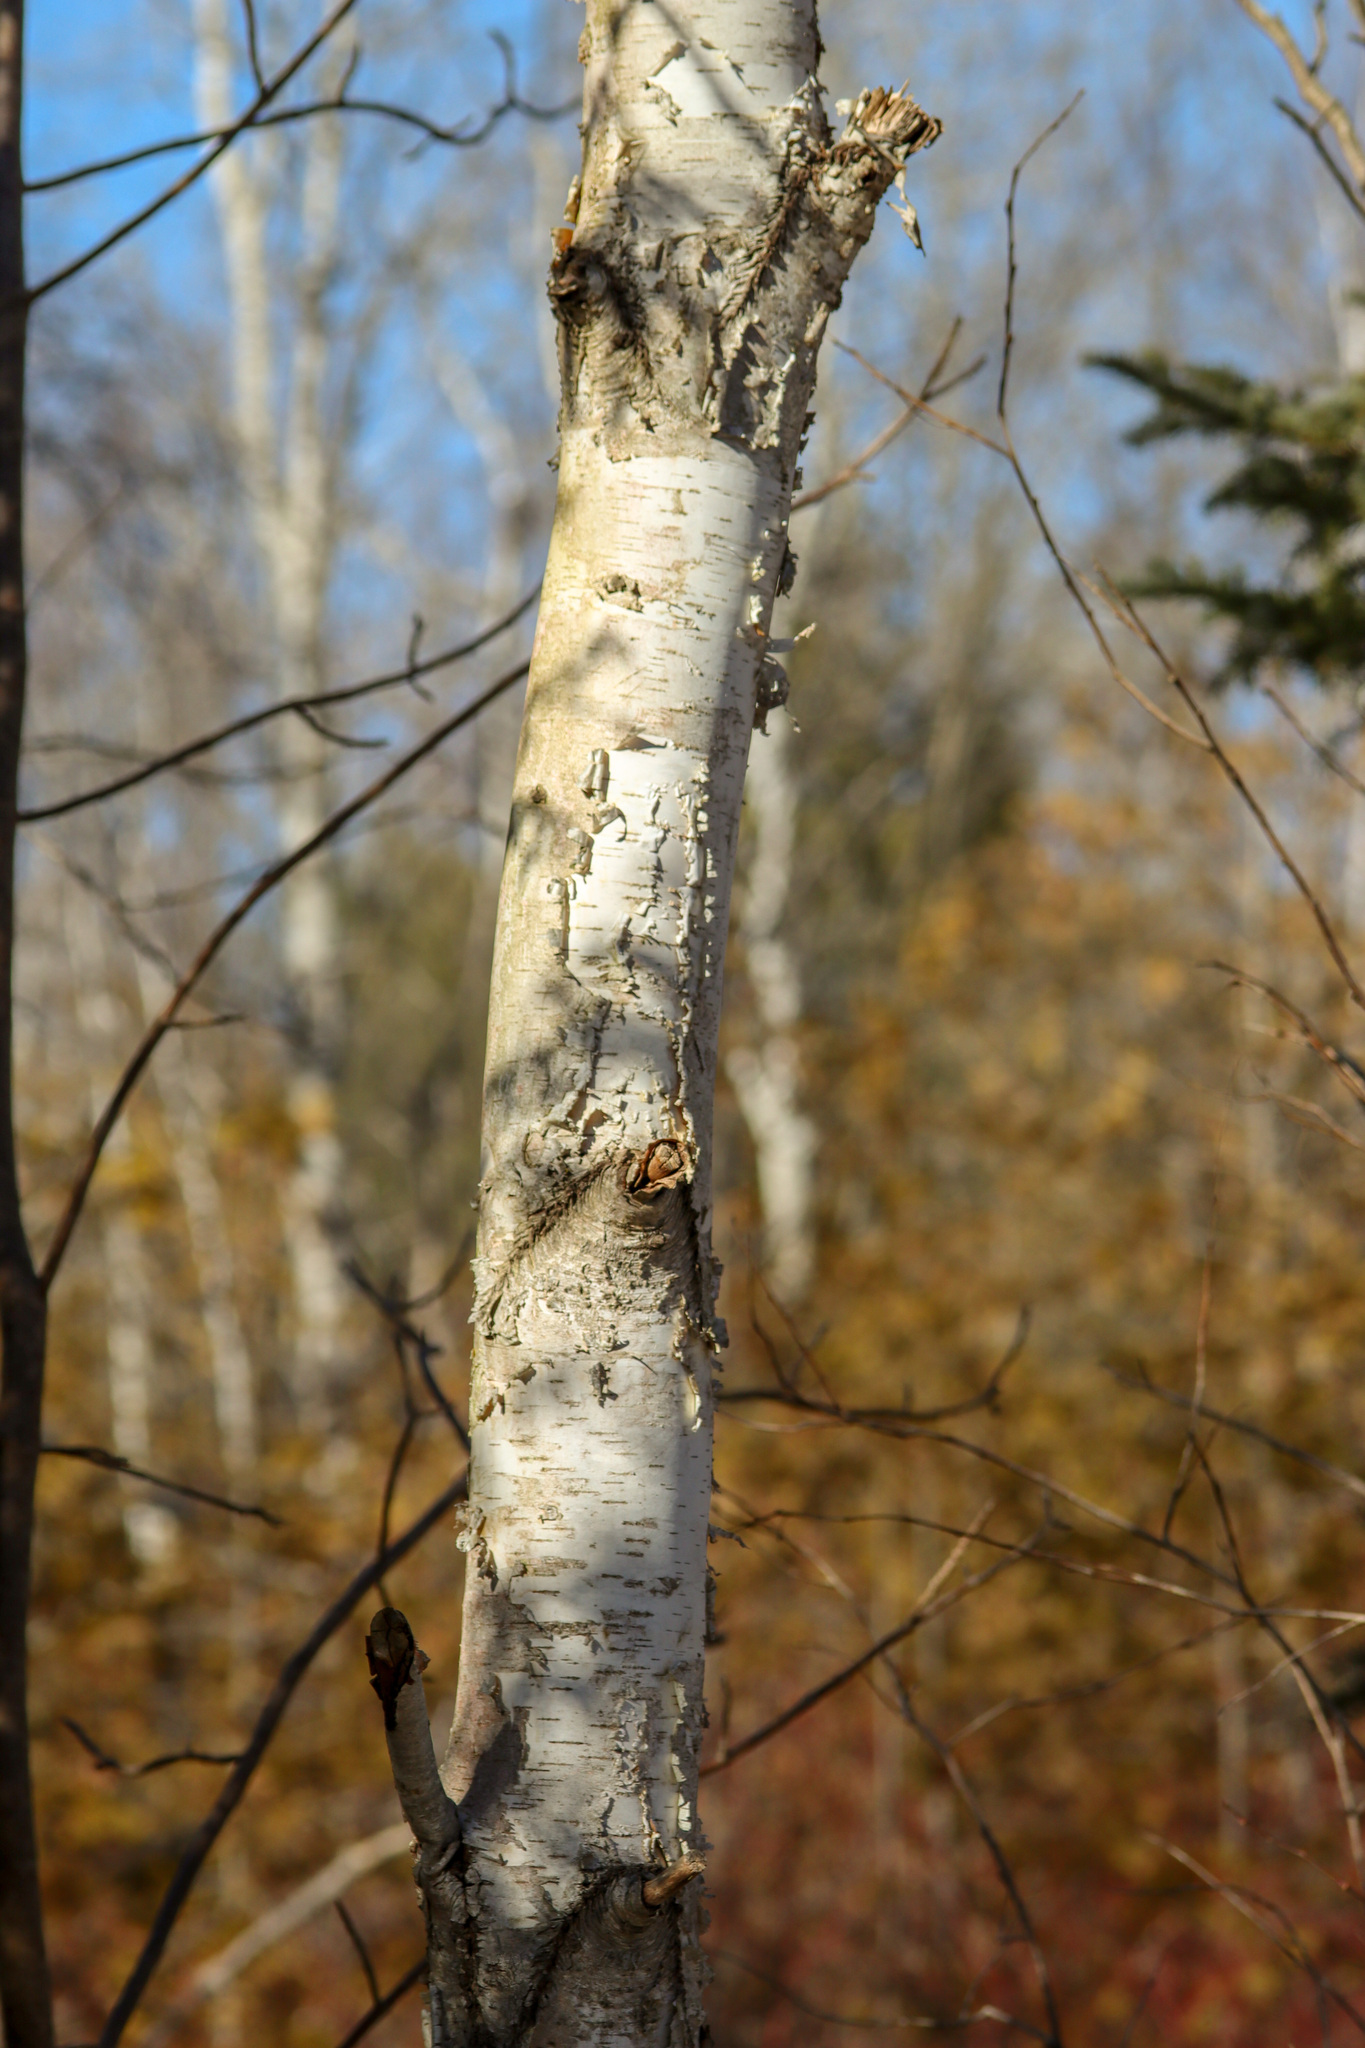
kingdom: Plantae
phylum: Tracheophyta
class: Magnoliopsida
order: Fagales
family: Betulaceae
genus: Betula
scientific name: Betula papyrifera
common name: Paper birch
